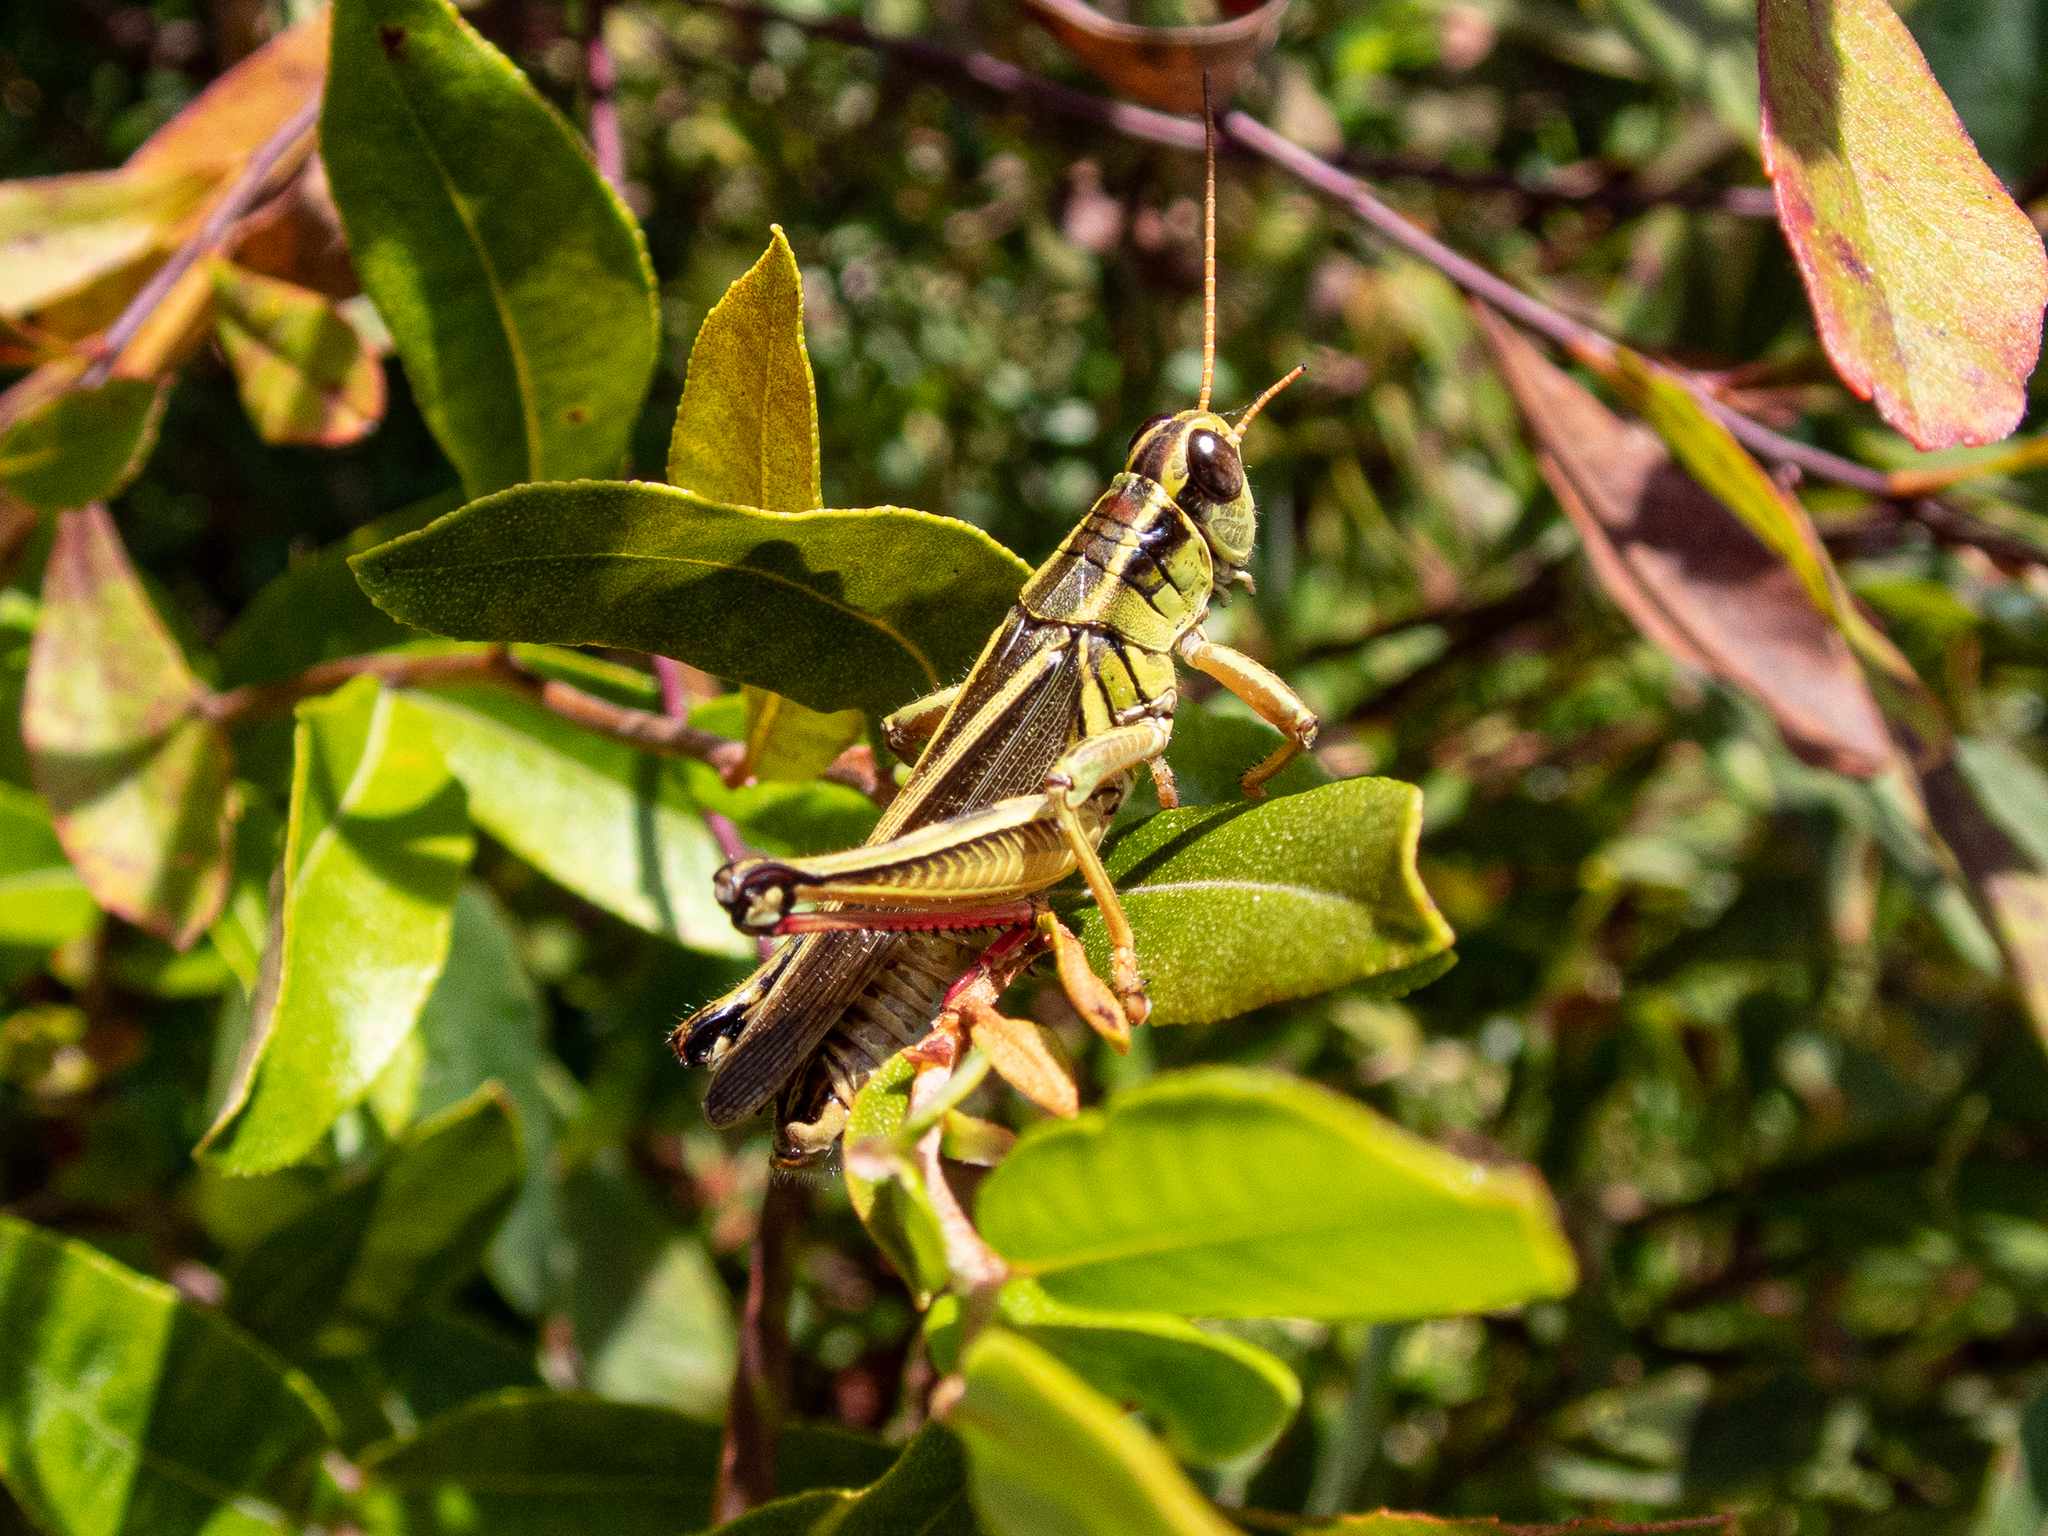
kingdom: Animalia
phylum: Arthropoda
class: Insecta
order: Orthoptera
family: Acrididae
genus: Melanoplus
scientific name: Melanoplus bivittatus
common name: Two-striped grasshopper
